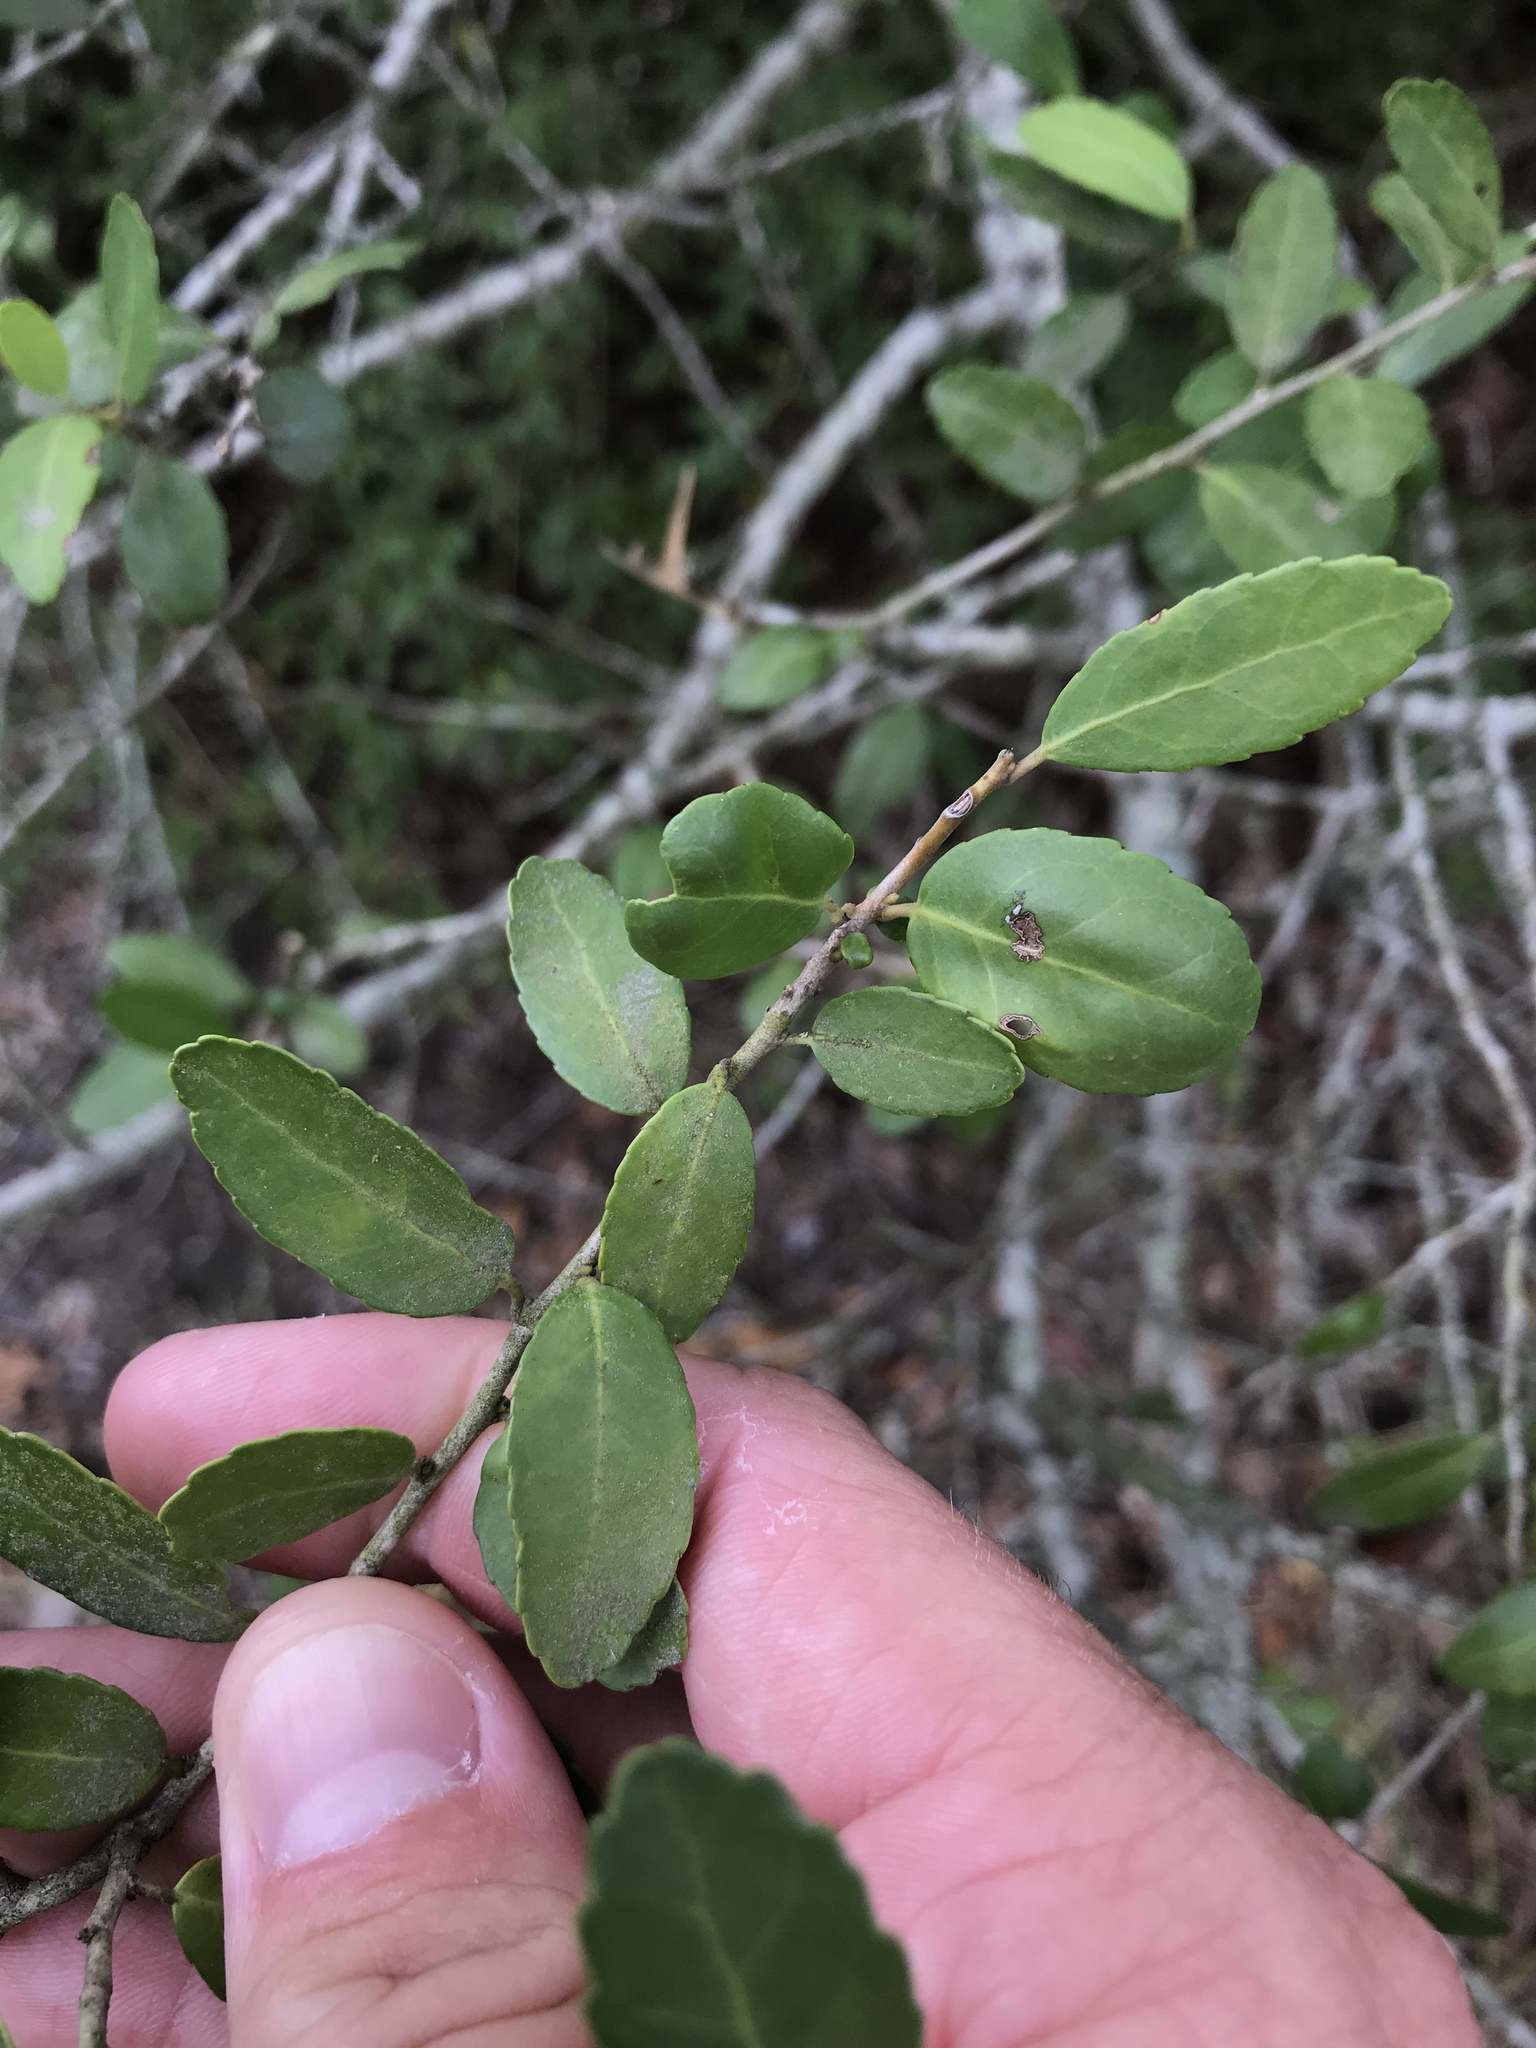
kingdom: Plantae
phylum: Tracheophyta
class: Magnoliopsida
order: Aquifoliales
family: Aquifoliaceae
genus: Ilex
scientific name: Ilex vomitoria
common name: Yaupon holly
